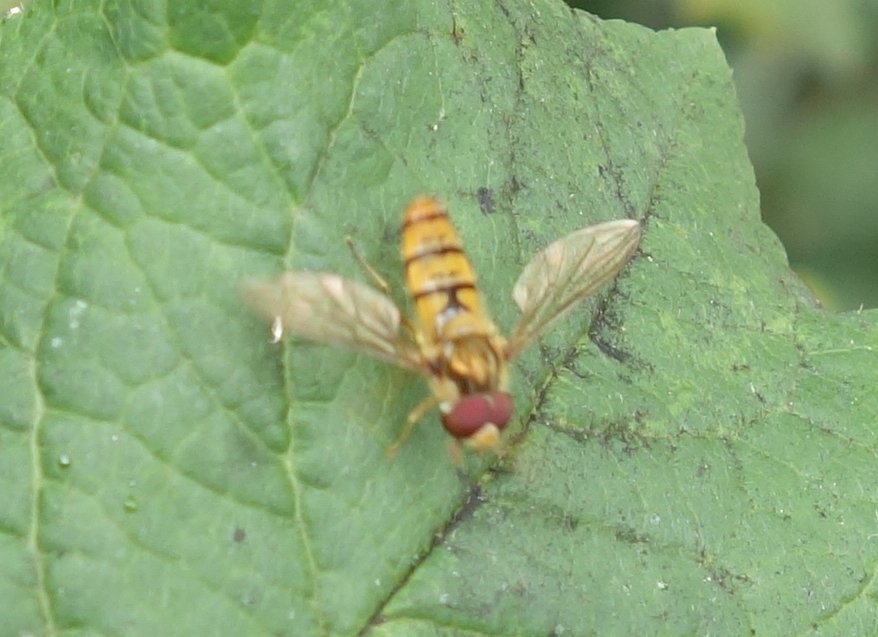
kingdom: Animalia
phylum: Arthropoda
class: Insecta
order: Diptera
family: Syrphidae
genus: Episyrphus
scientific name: Episyrphus balteatus
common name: Marmalade hoverfly
